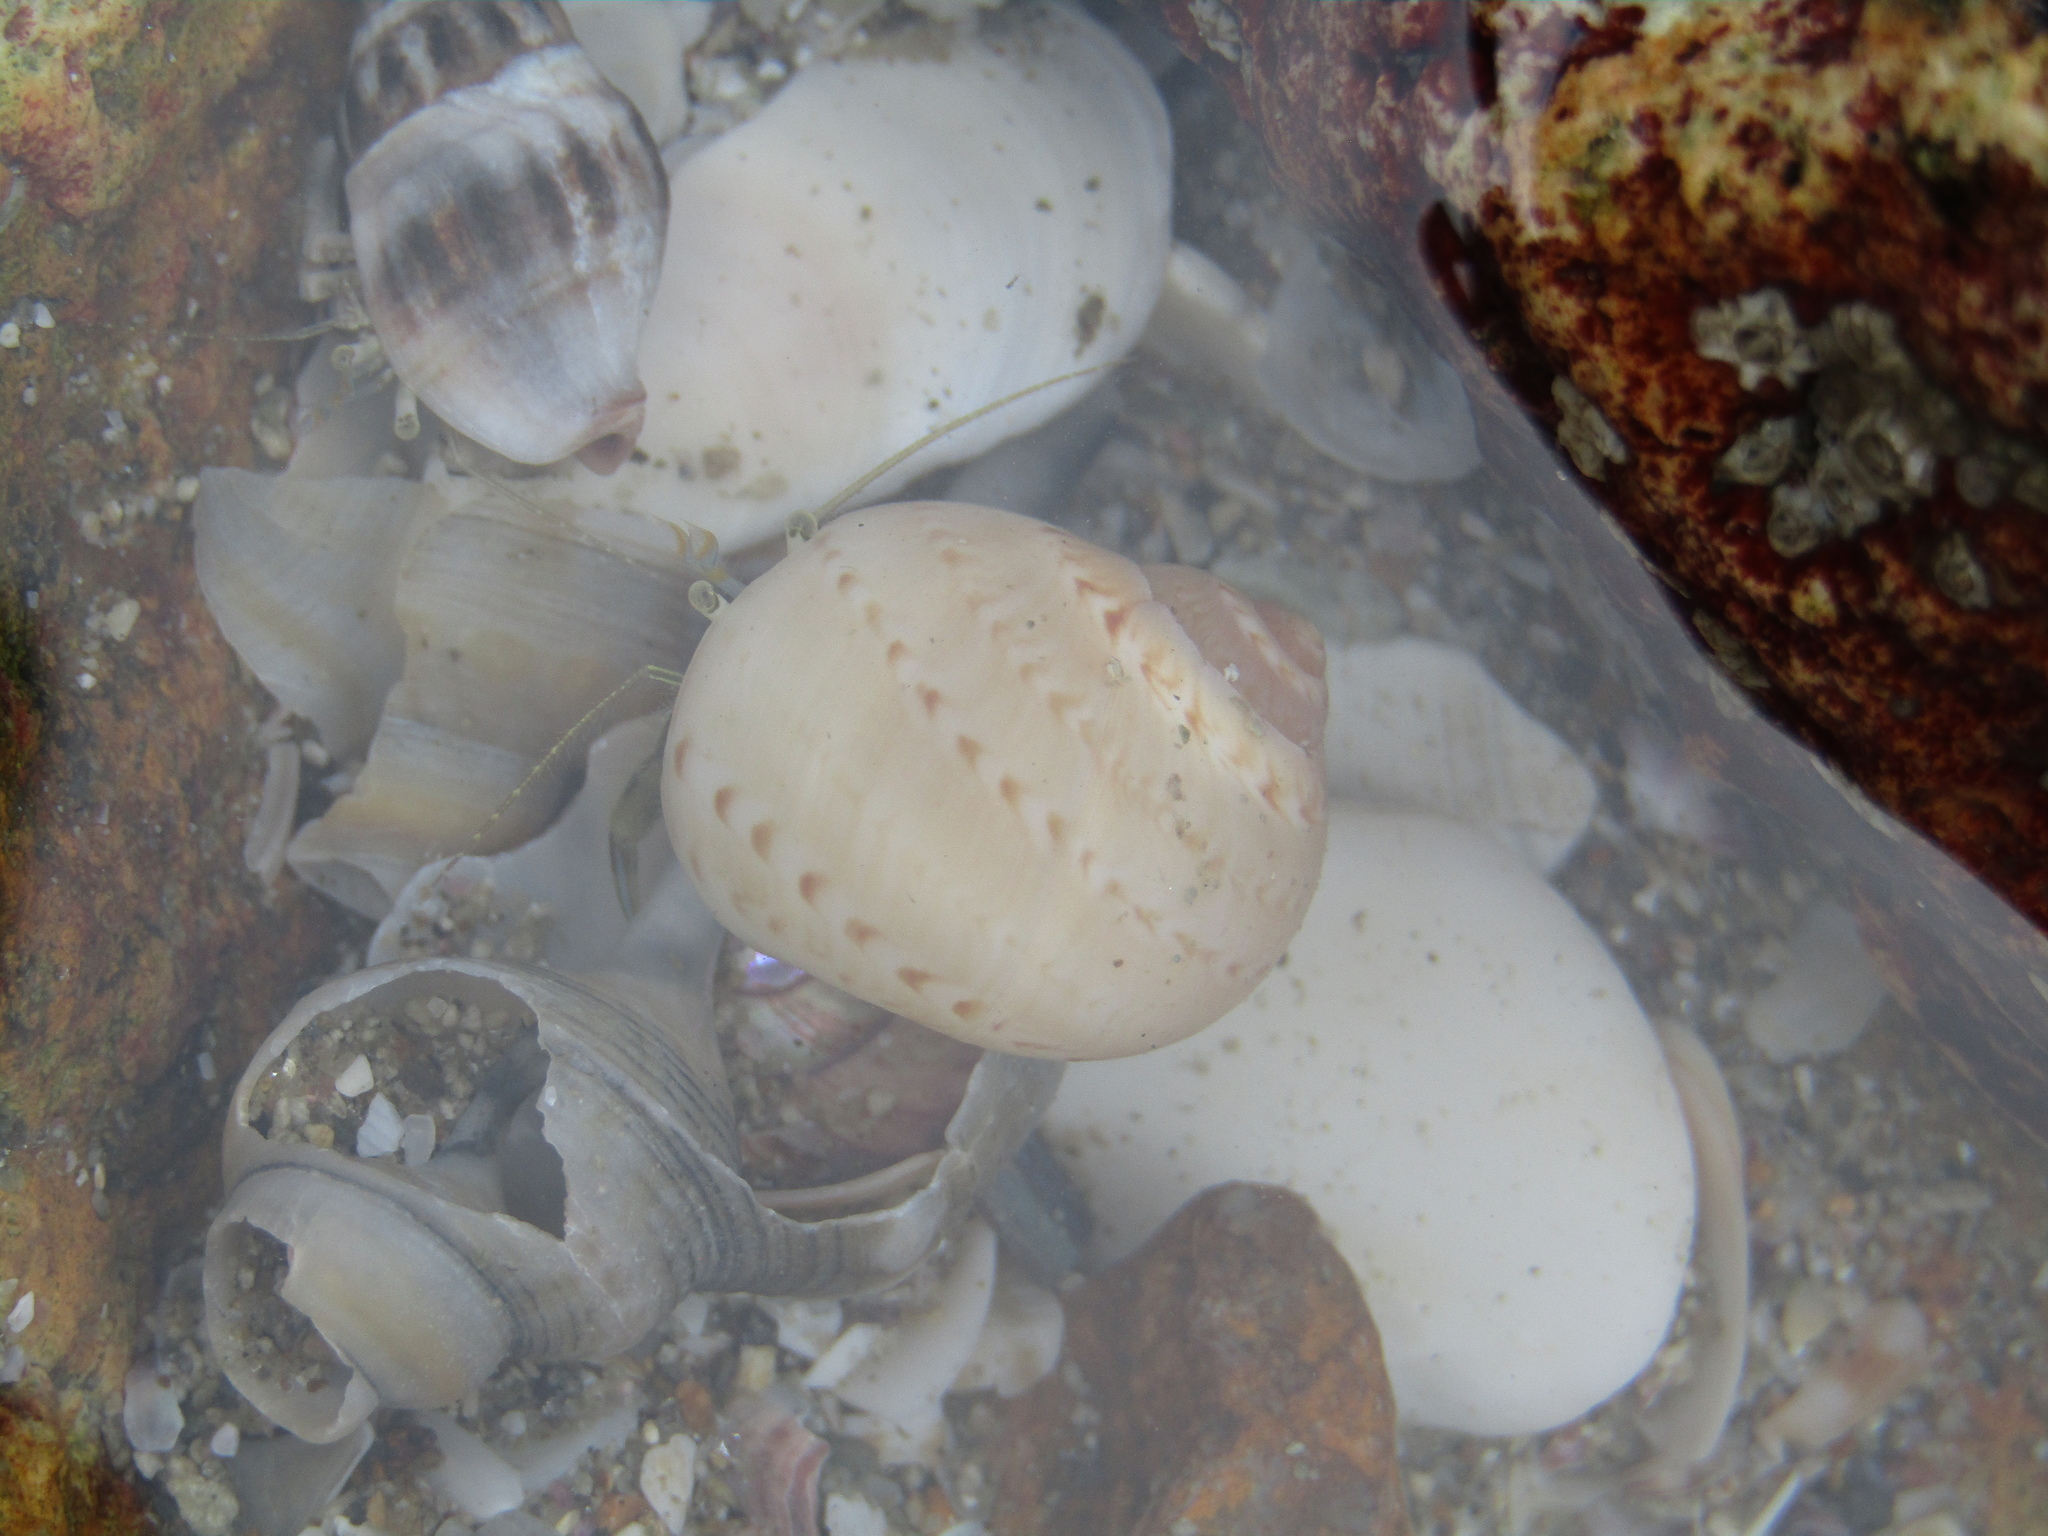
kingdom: Animalia
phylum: Mollusca
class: Gastropoda
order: Littorinimorpha
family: Naticidae
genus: Tanea
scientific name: Tanea zelandica
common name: New zealand moonsnail
